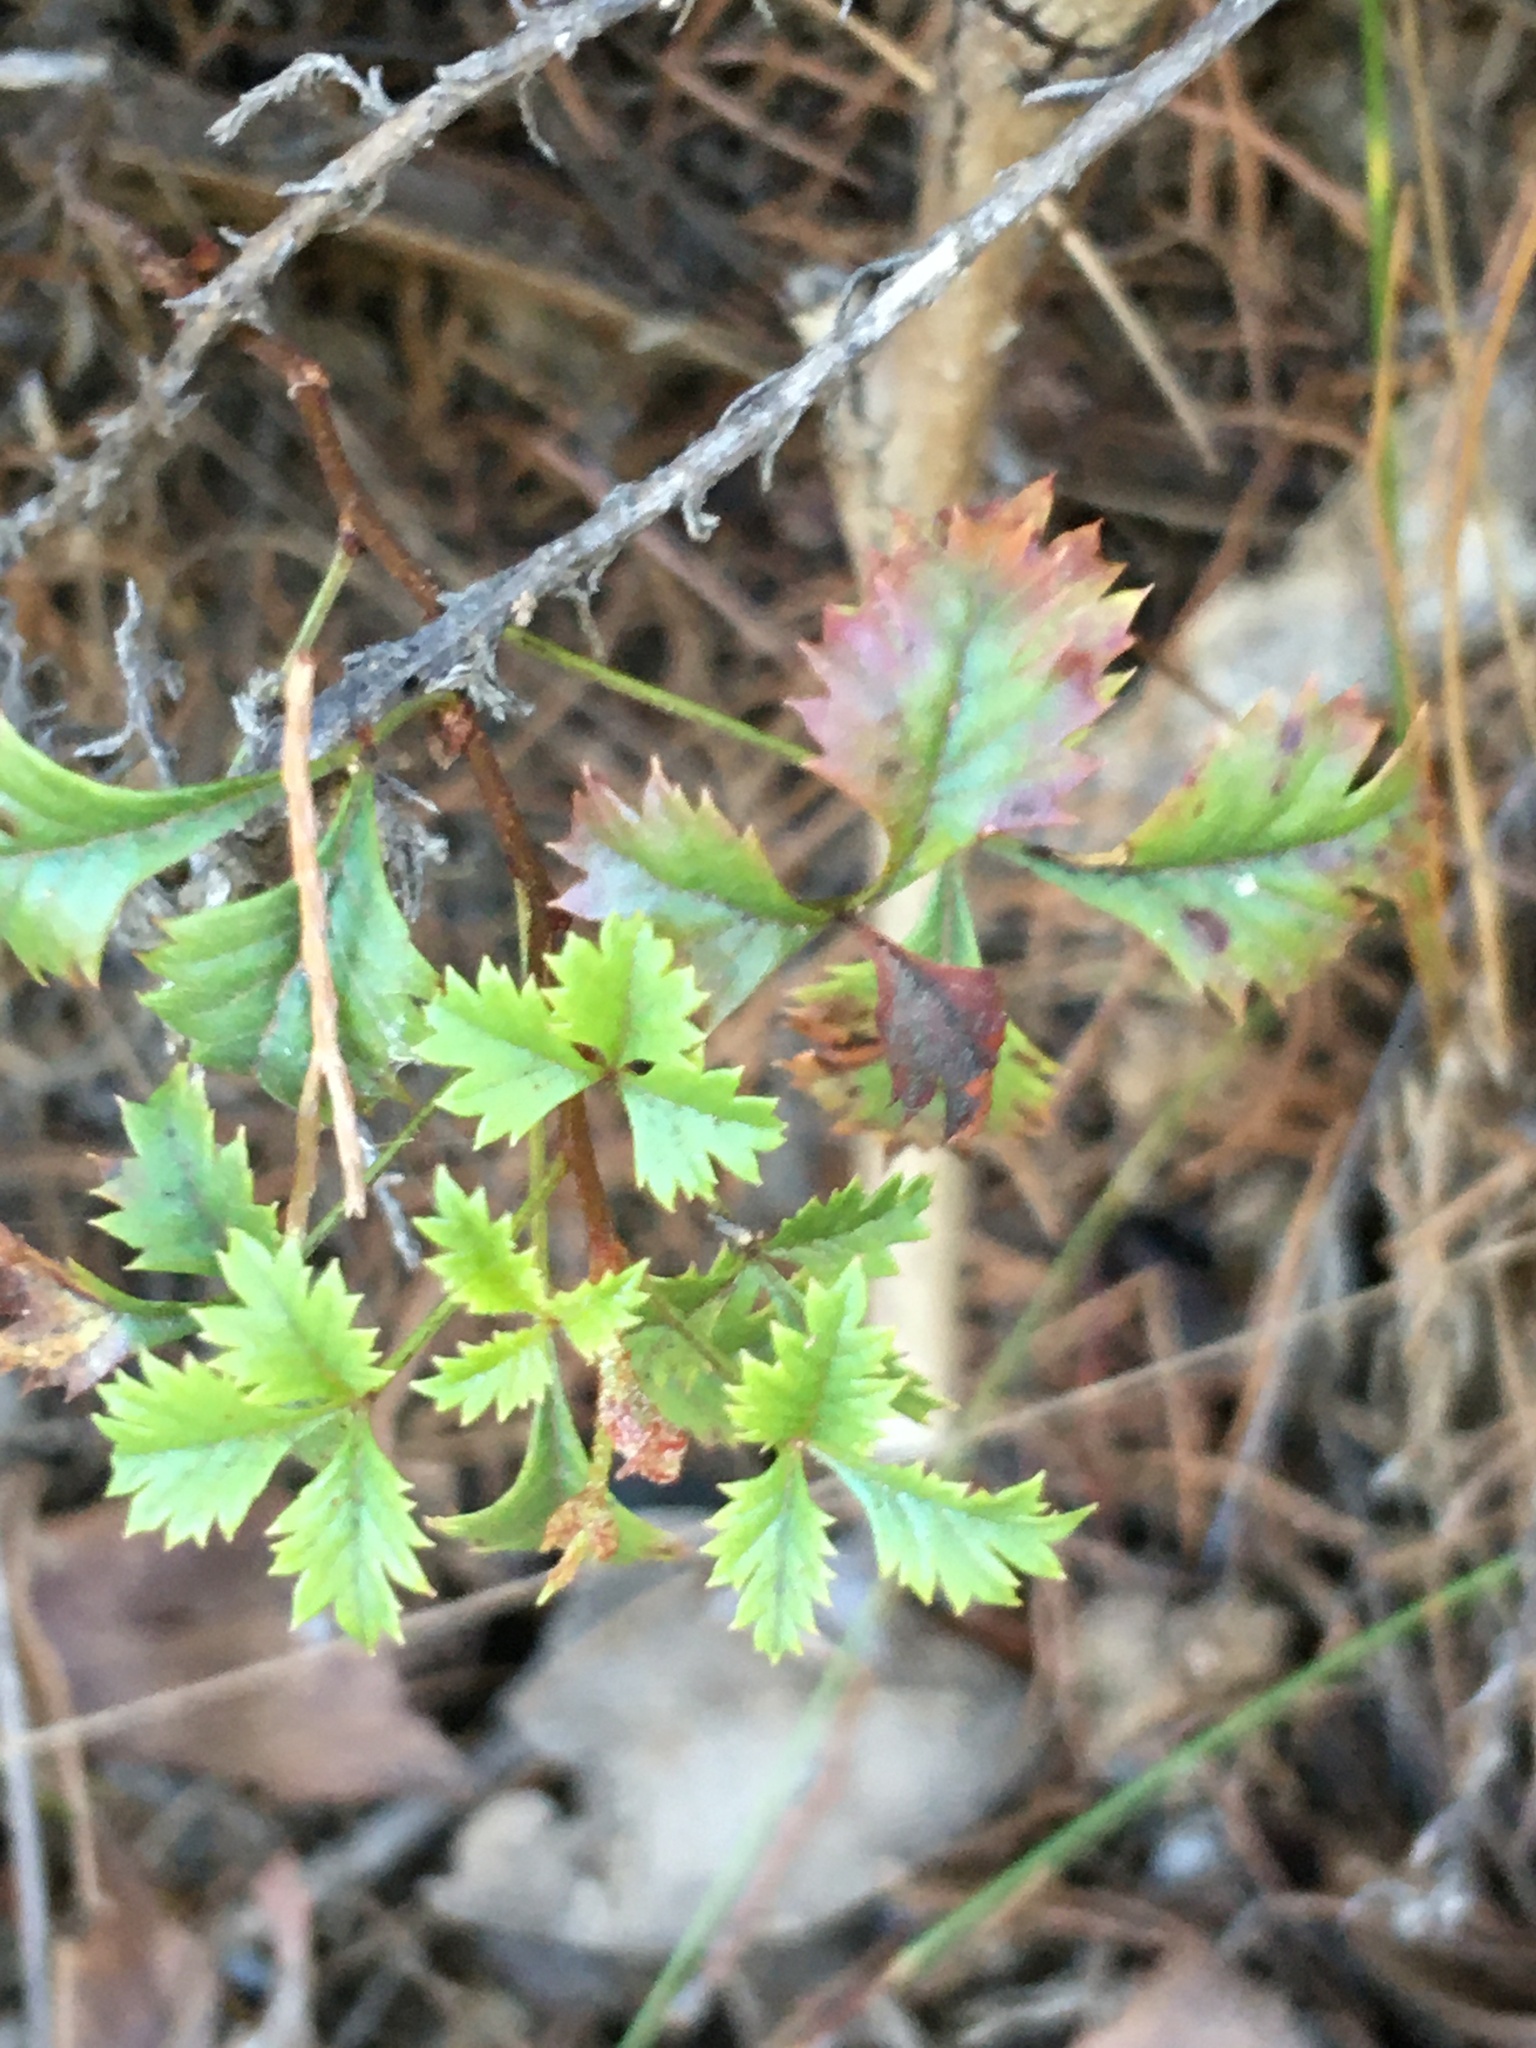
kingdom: Plantae
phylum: Tracheophyta
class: Magnoliopsida
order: Sapindales
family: Anacardiaceae
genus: Searsia
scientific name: Searsia dissecta
